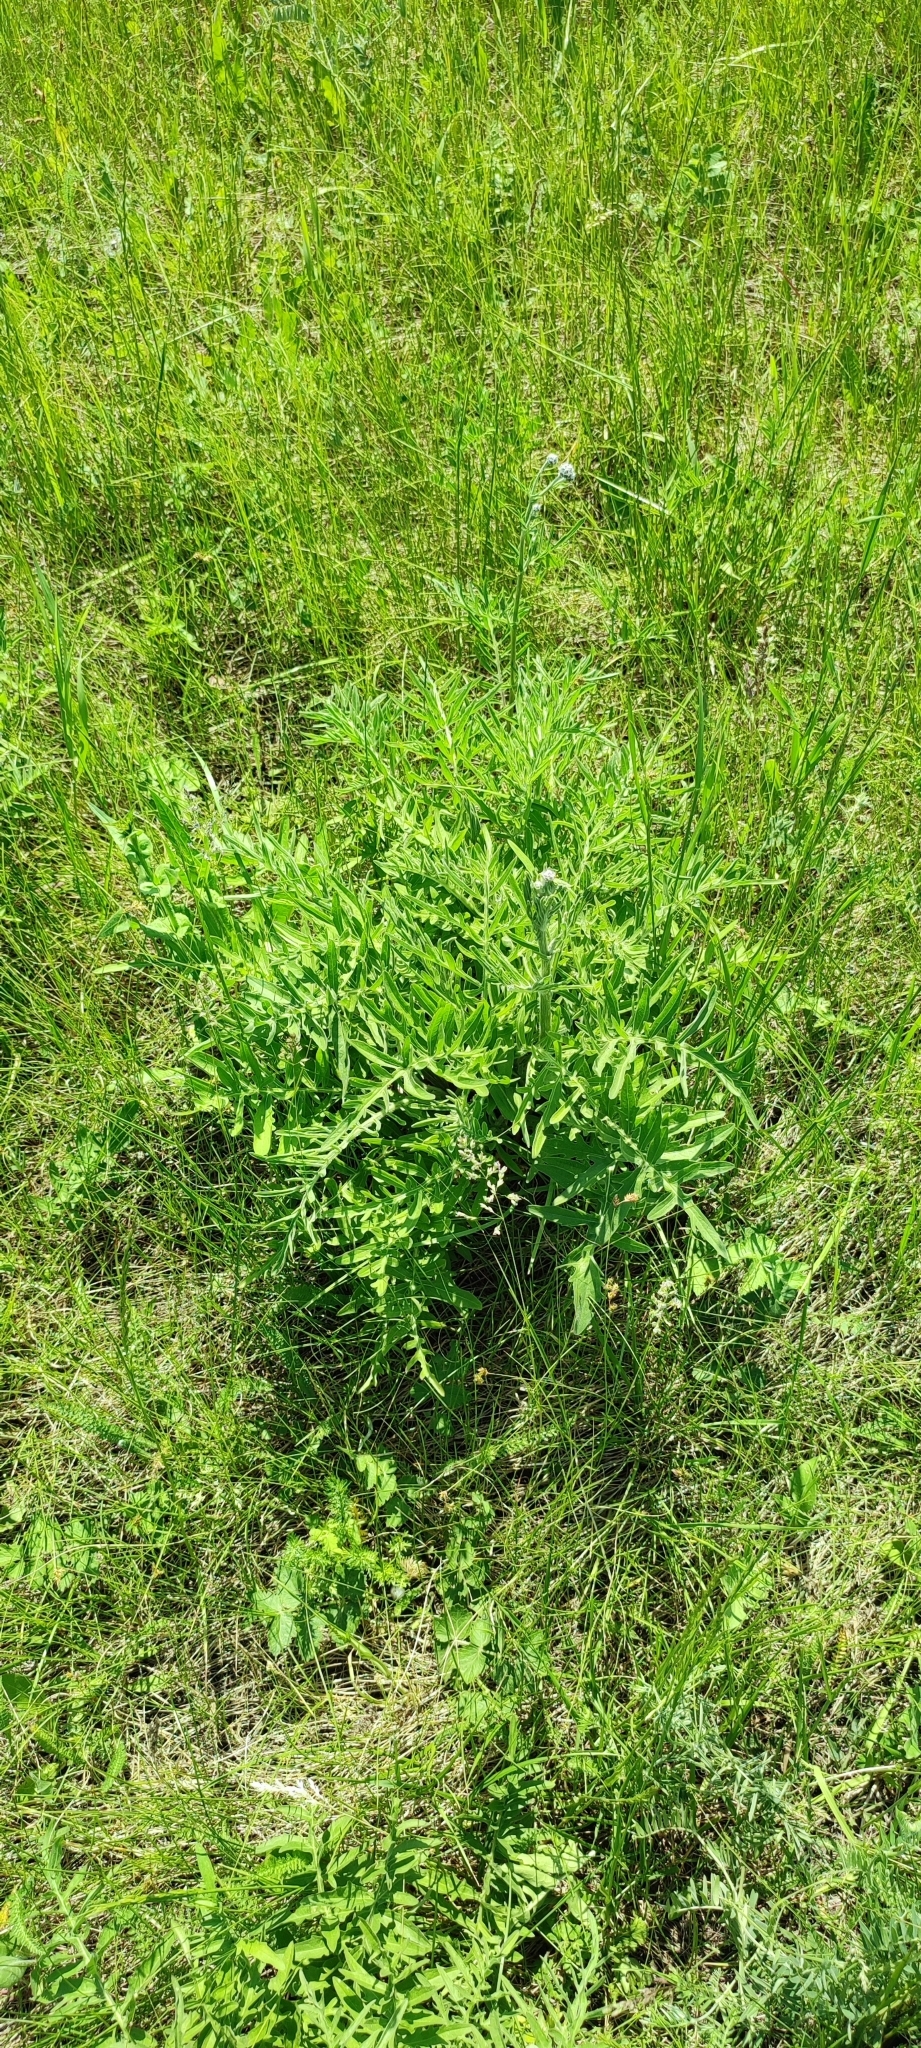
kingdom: Plantae
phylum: Tracheophyta
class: Magnoliopsida
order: Asterales
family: Asteraceae
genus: Centaurea
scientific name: Centaurea scabiosa
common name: Greater knapweed
